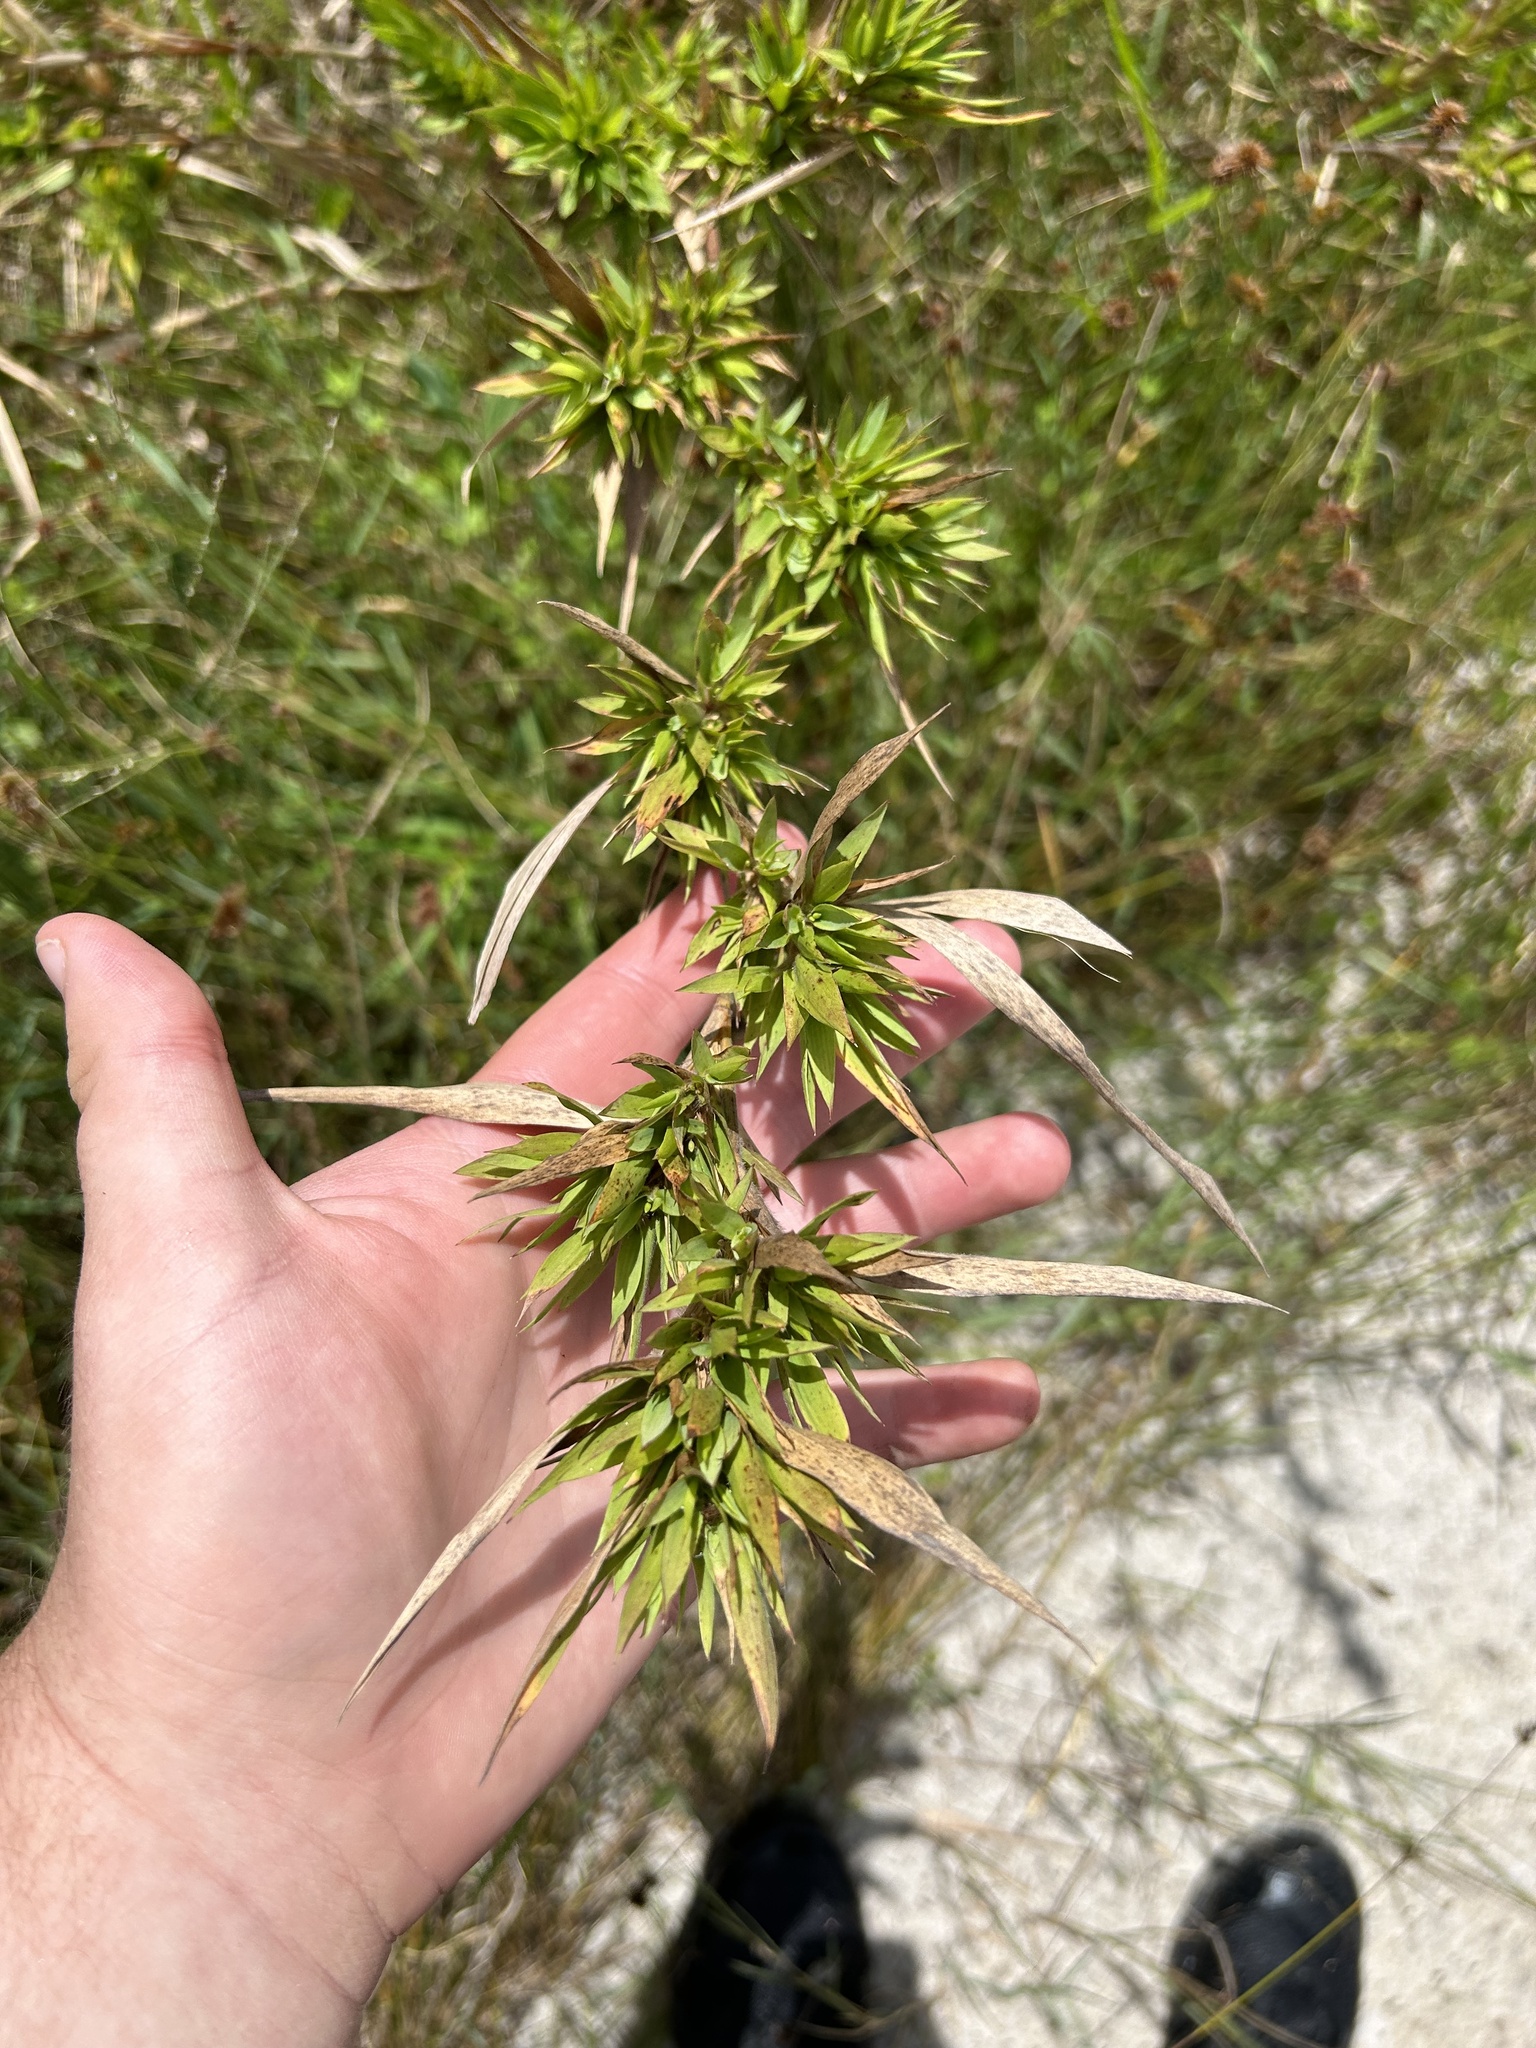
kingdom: Plantae
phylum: Tracheophyta
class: Liliopsida
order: Poales
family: Poaceae
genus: Dichanthelium
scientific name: Dichanthelium scabriusculum
